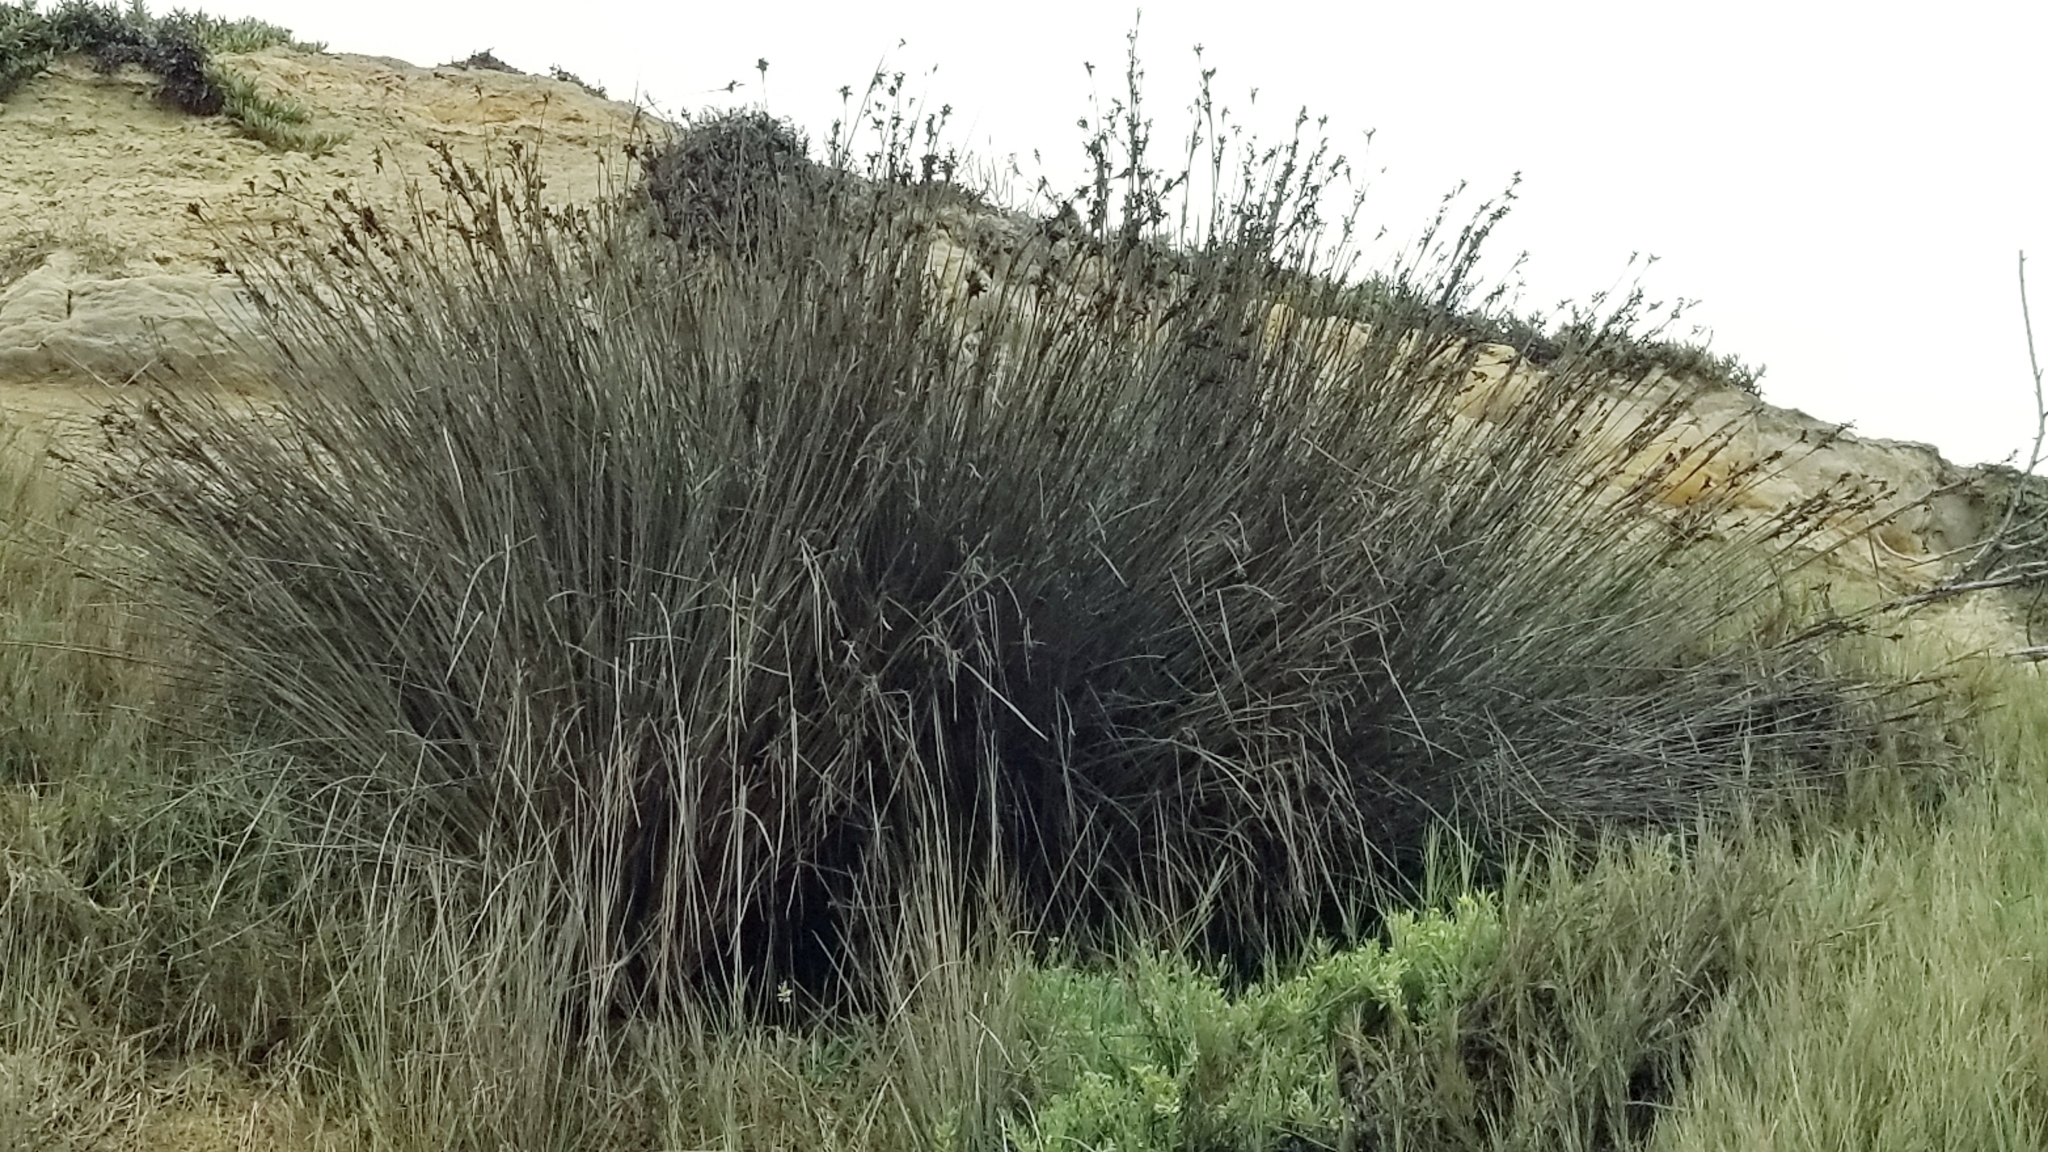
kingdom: Plantae
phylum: Tracheophyta
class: Liliopsida
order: Poales
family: Juncaceae
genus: Juncus
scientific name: Juncus acutus
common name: Sharp rush
